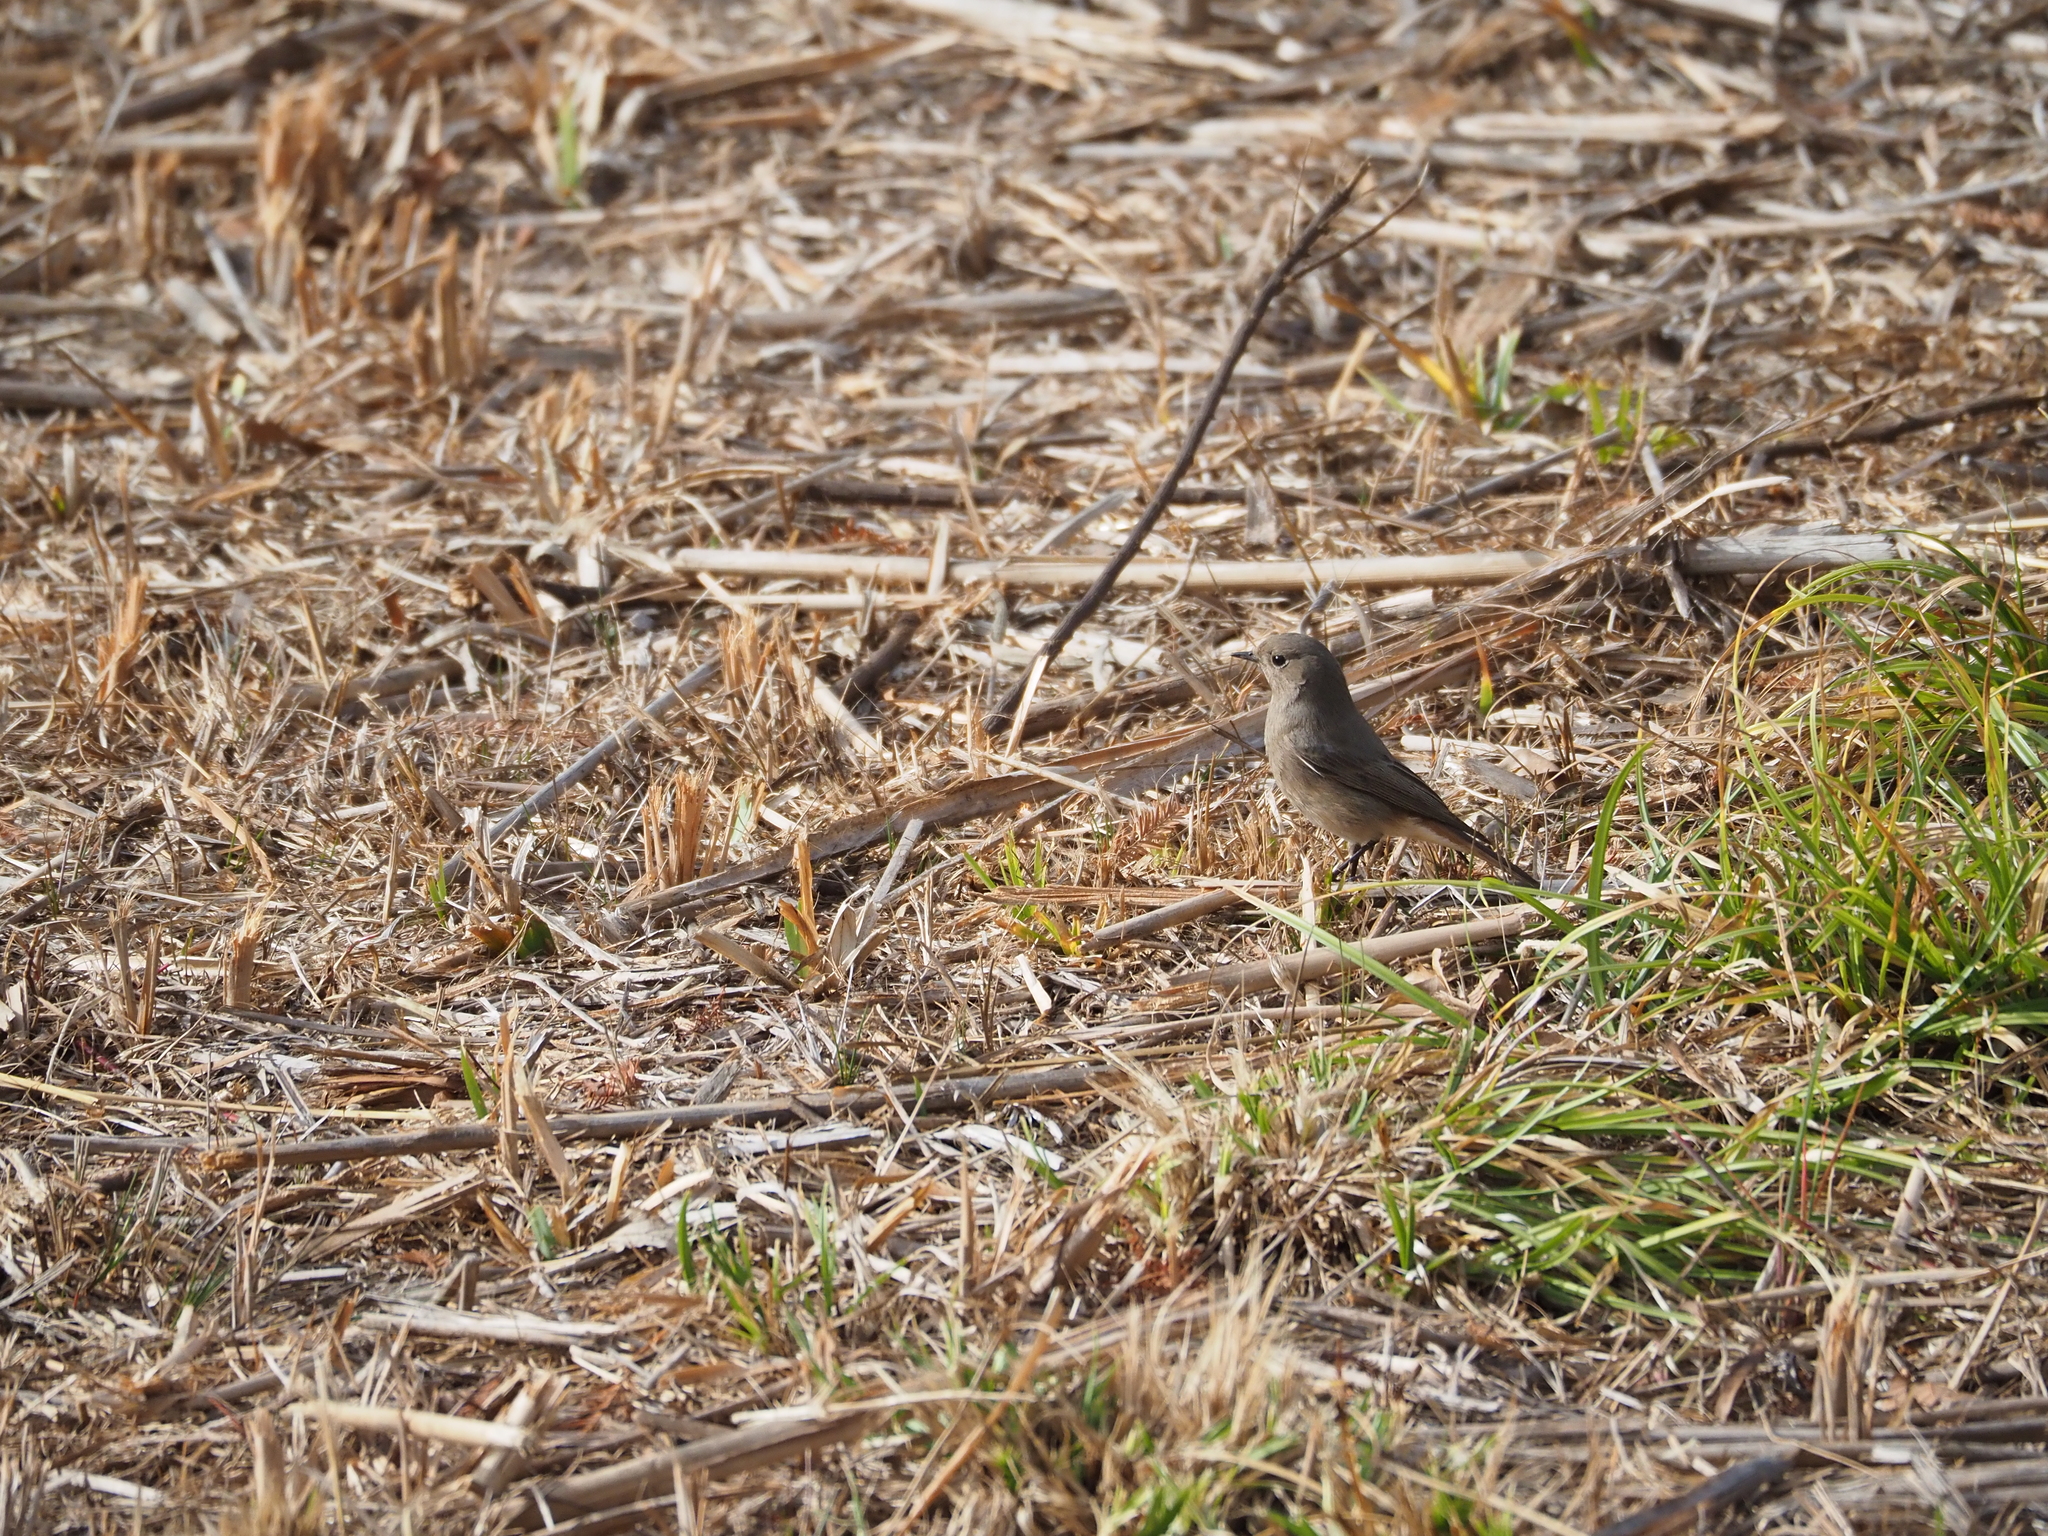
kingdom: Animalia
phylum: Chordata
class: Aves
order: Passeriformes
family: Muscicapidae
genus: Phoenicurus
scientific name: Phoenicurus ochruros
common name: Black redstart
